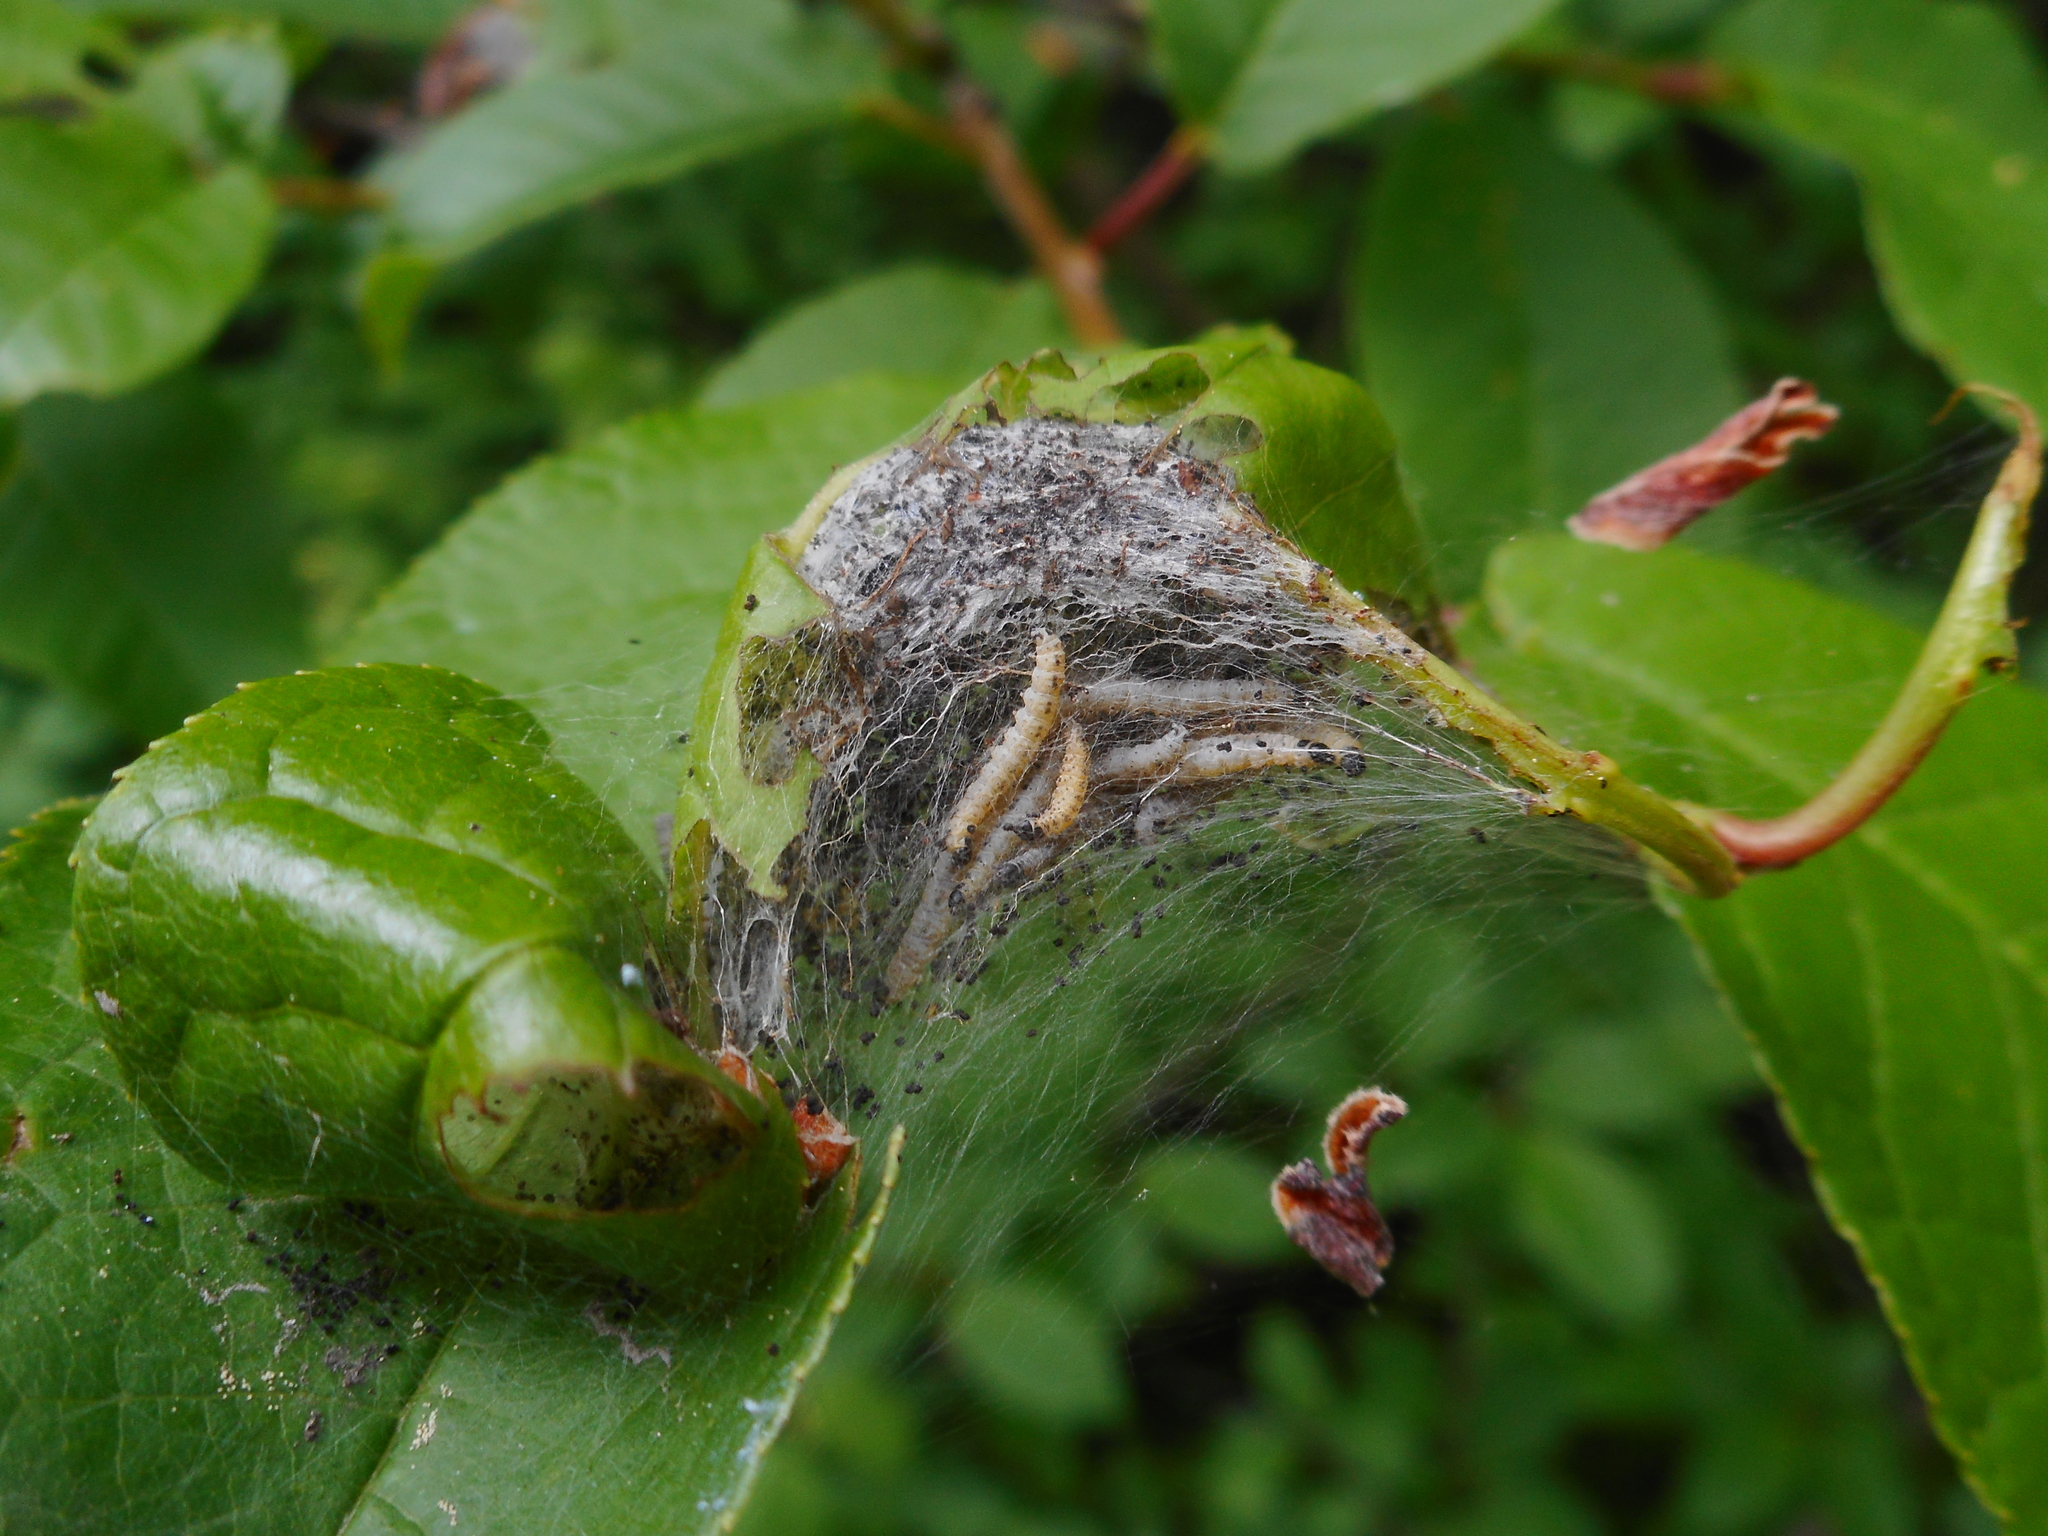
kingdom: Animalia
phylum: Arthropoda
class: Insecta
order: Lepidoptera
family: Yponomeutidae
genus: Yponomeuta
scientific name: Yponomeuta evonymella
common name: Bird-cherry ermine
